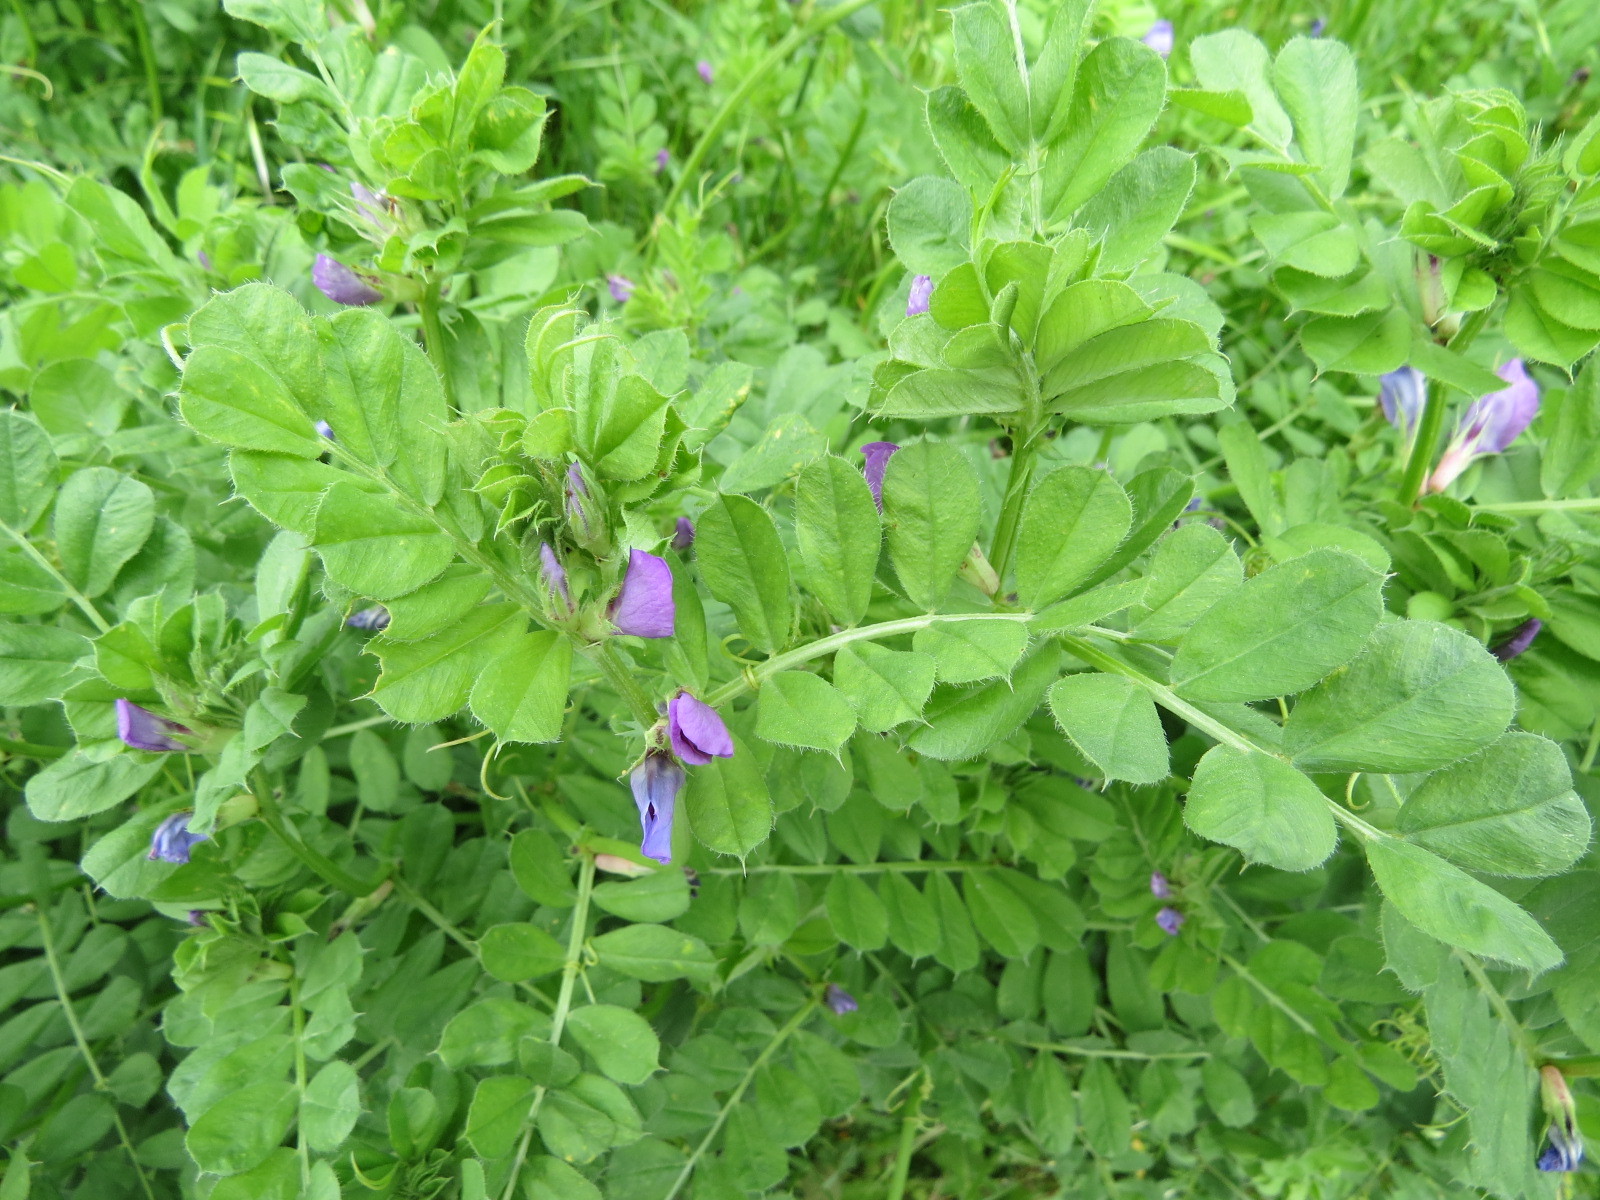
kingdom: Plantae
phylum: Tracheophyta
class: Magnoliopsida
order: Fabales
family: Fabaceae
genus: Vicia
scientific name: Vicia sativa
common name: Garden vetch
